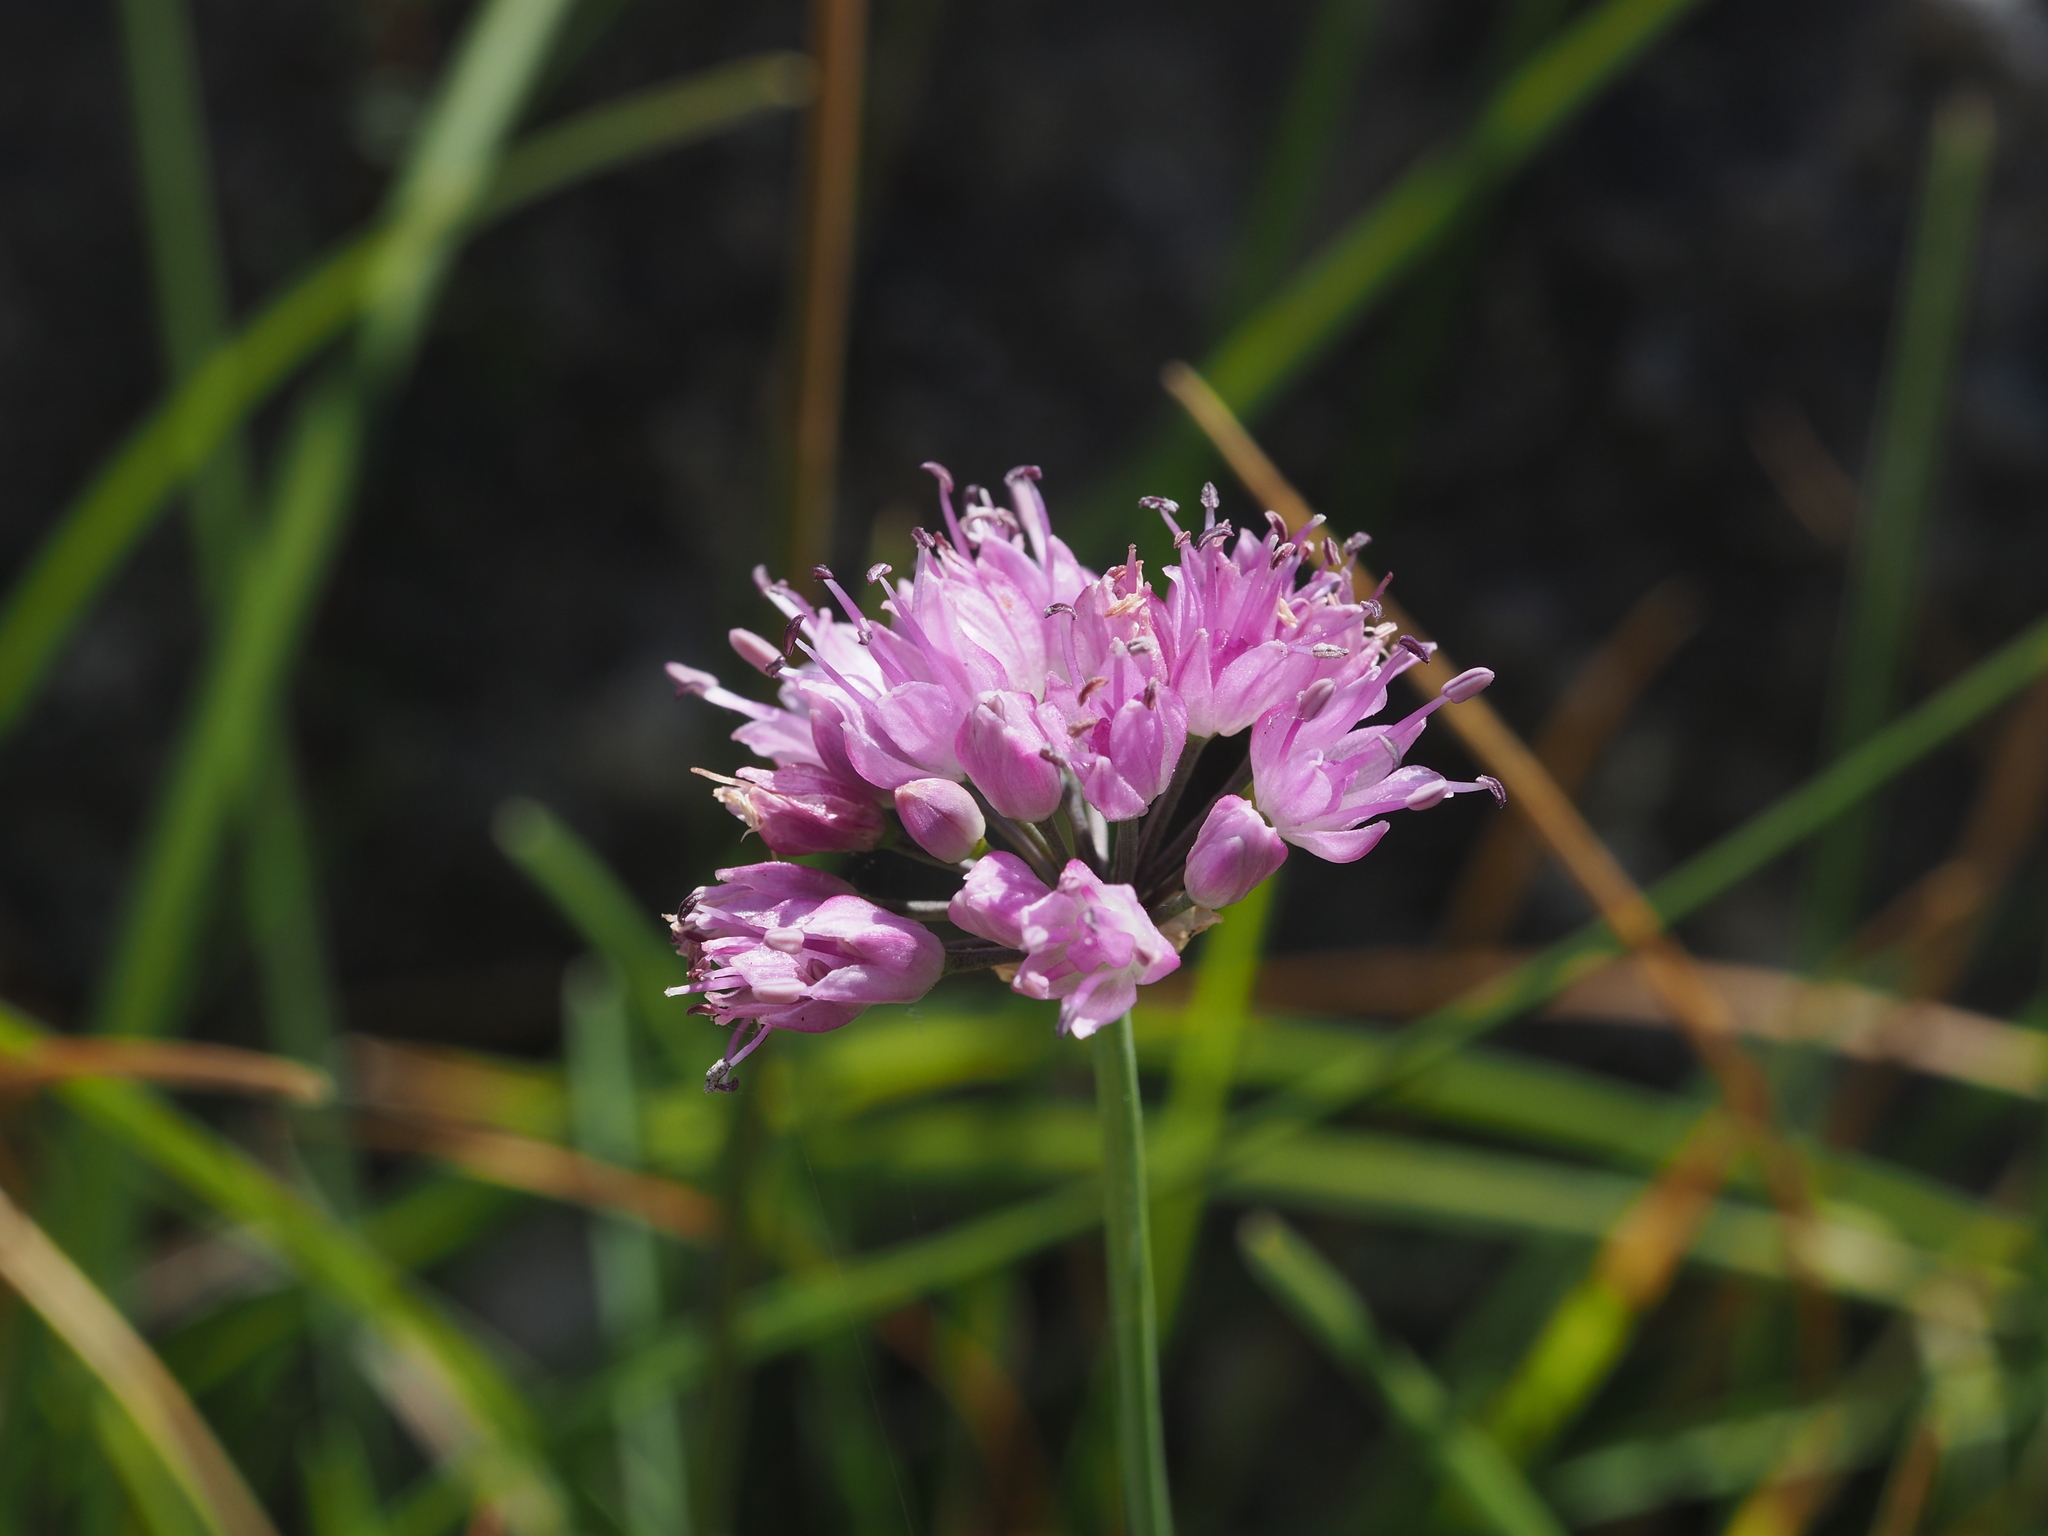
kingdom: Plantae
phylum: Tracheophyta
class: Liliopsida
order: Asparagales
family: Amaryllidaceae
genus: Allium
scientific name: Allium lusitanicum
